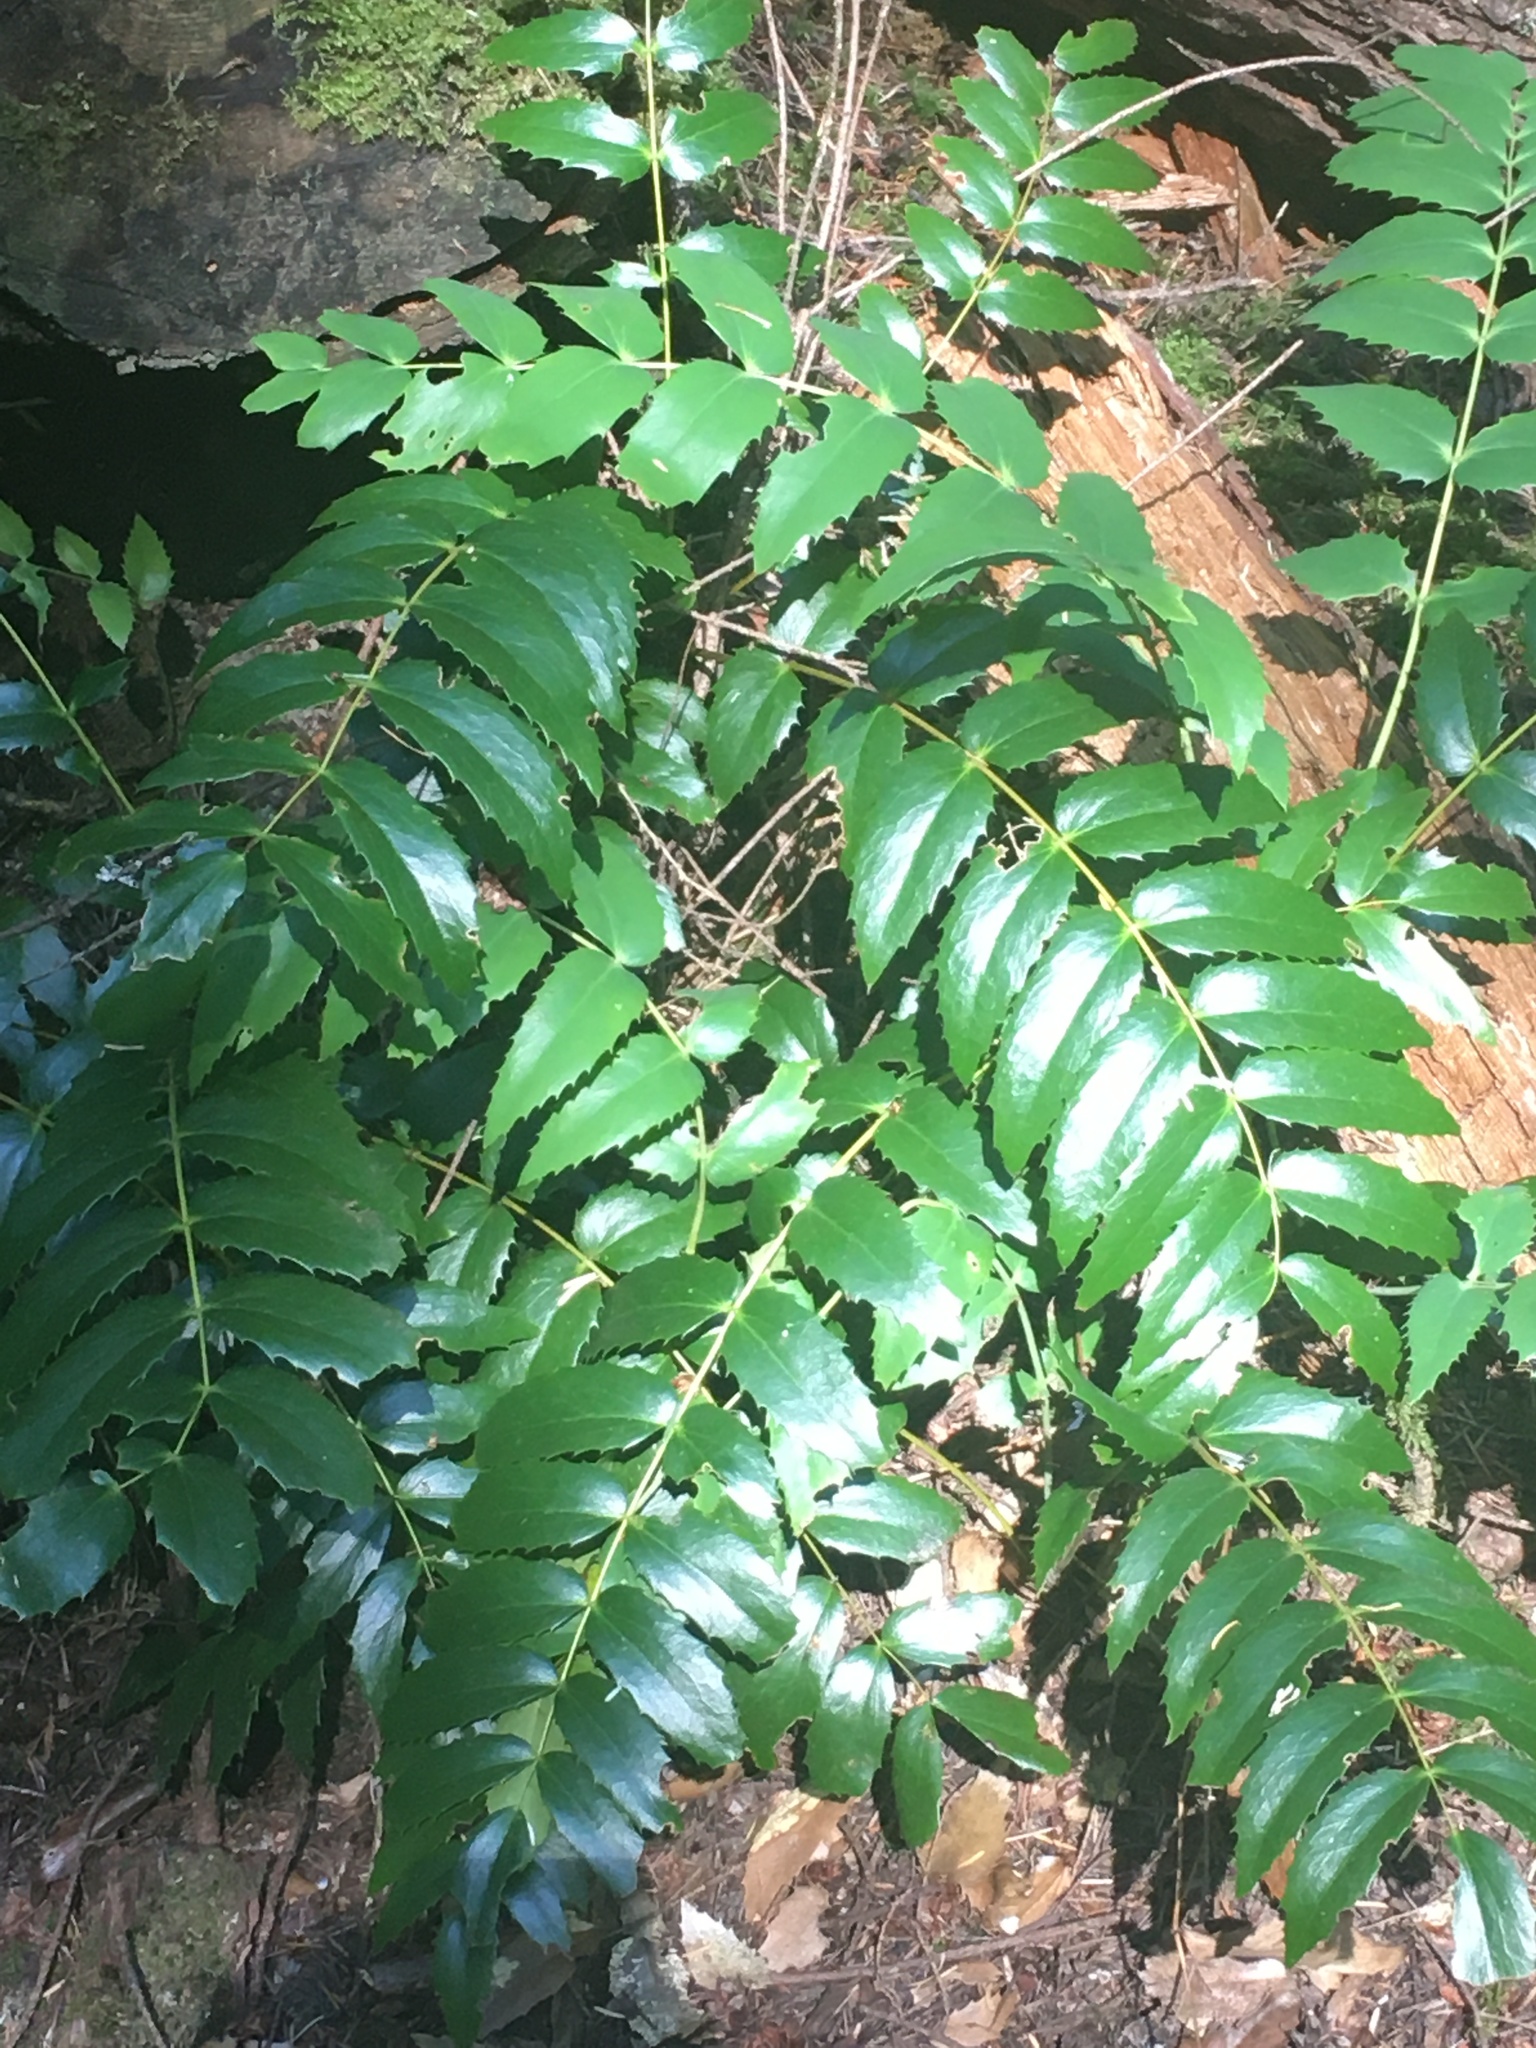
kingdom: Plantae
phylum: Tracheophyta
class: Magnoliopsida
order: Ranunculales
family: Berberidaceae
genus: Mahonia
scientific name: Mahonia nervosa
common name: Cascade oregon-grape
